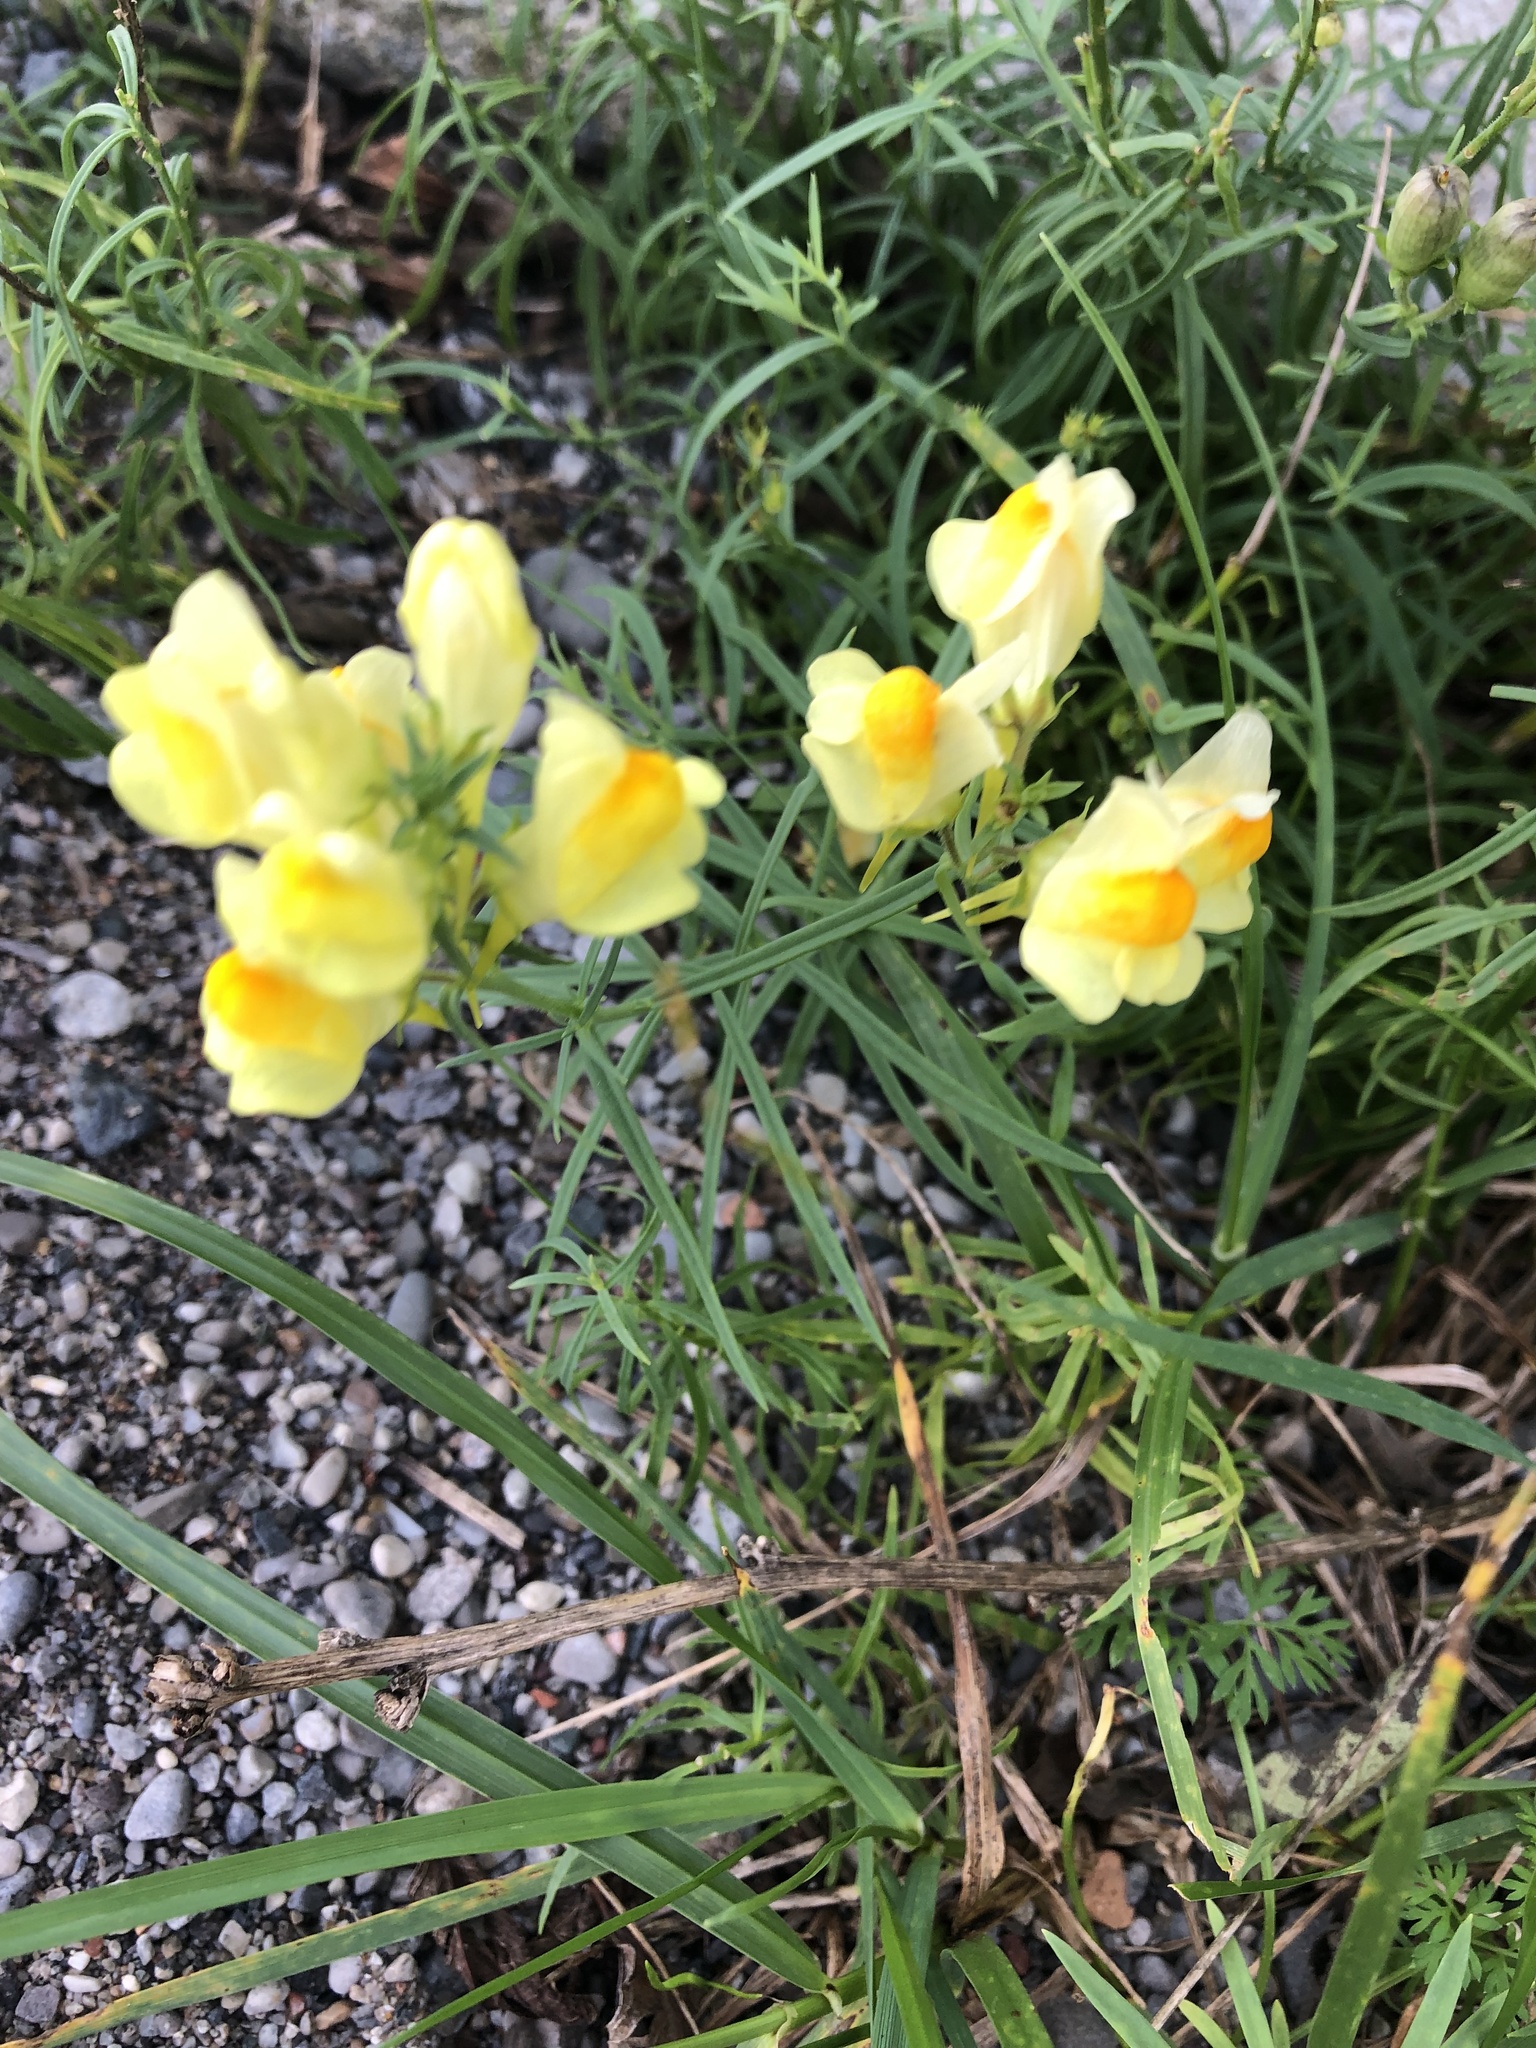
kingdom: Plantae
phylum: Tracheophyta
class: Magnoliopsida
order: Lamiales
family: Plantaginaceae
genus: Linaria
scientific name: Linaria vulgaris
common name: Butter and eggs
